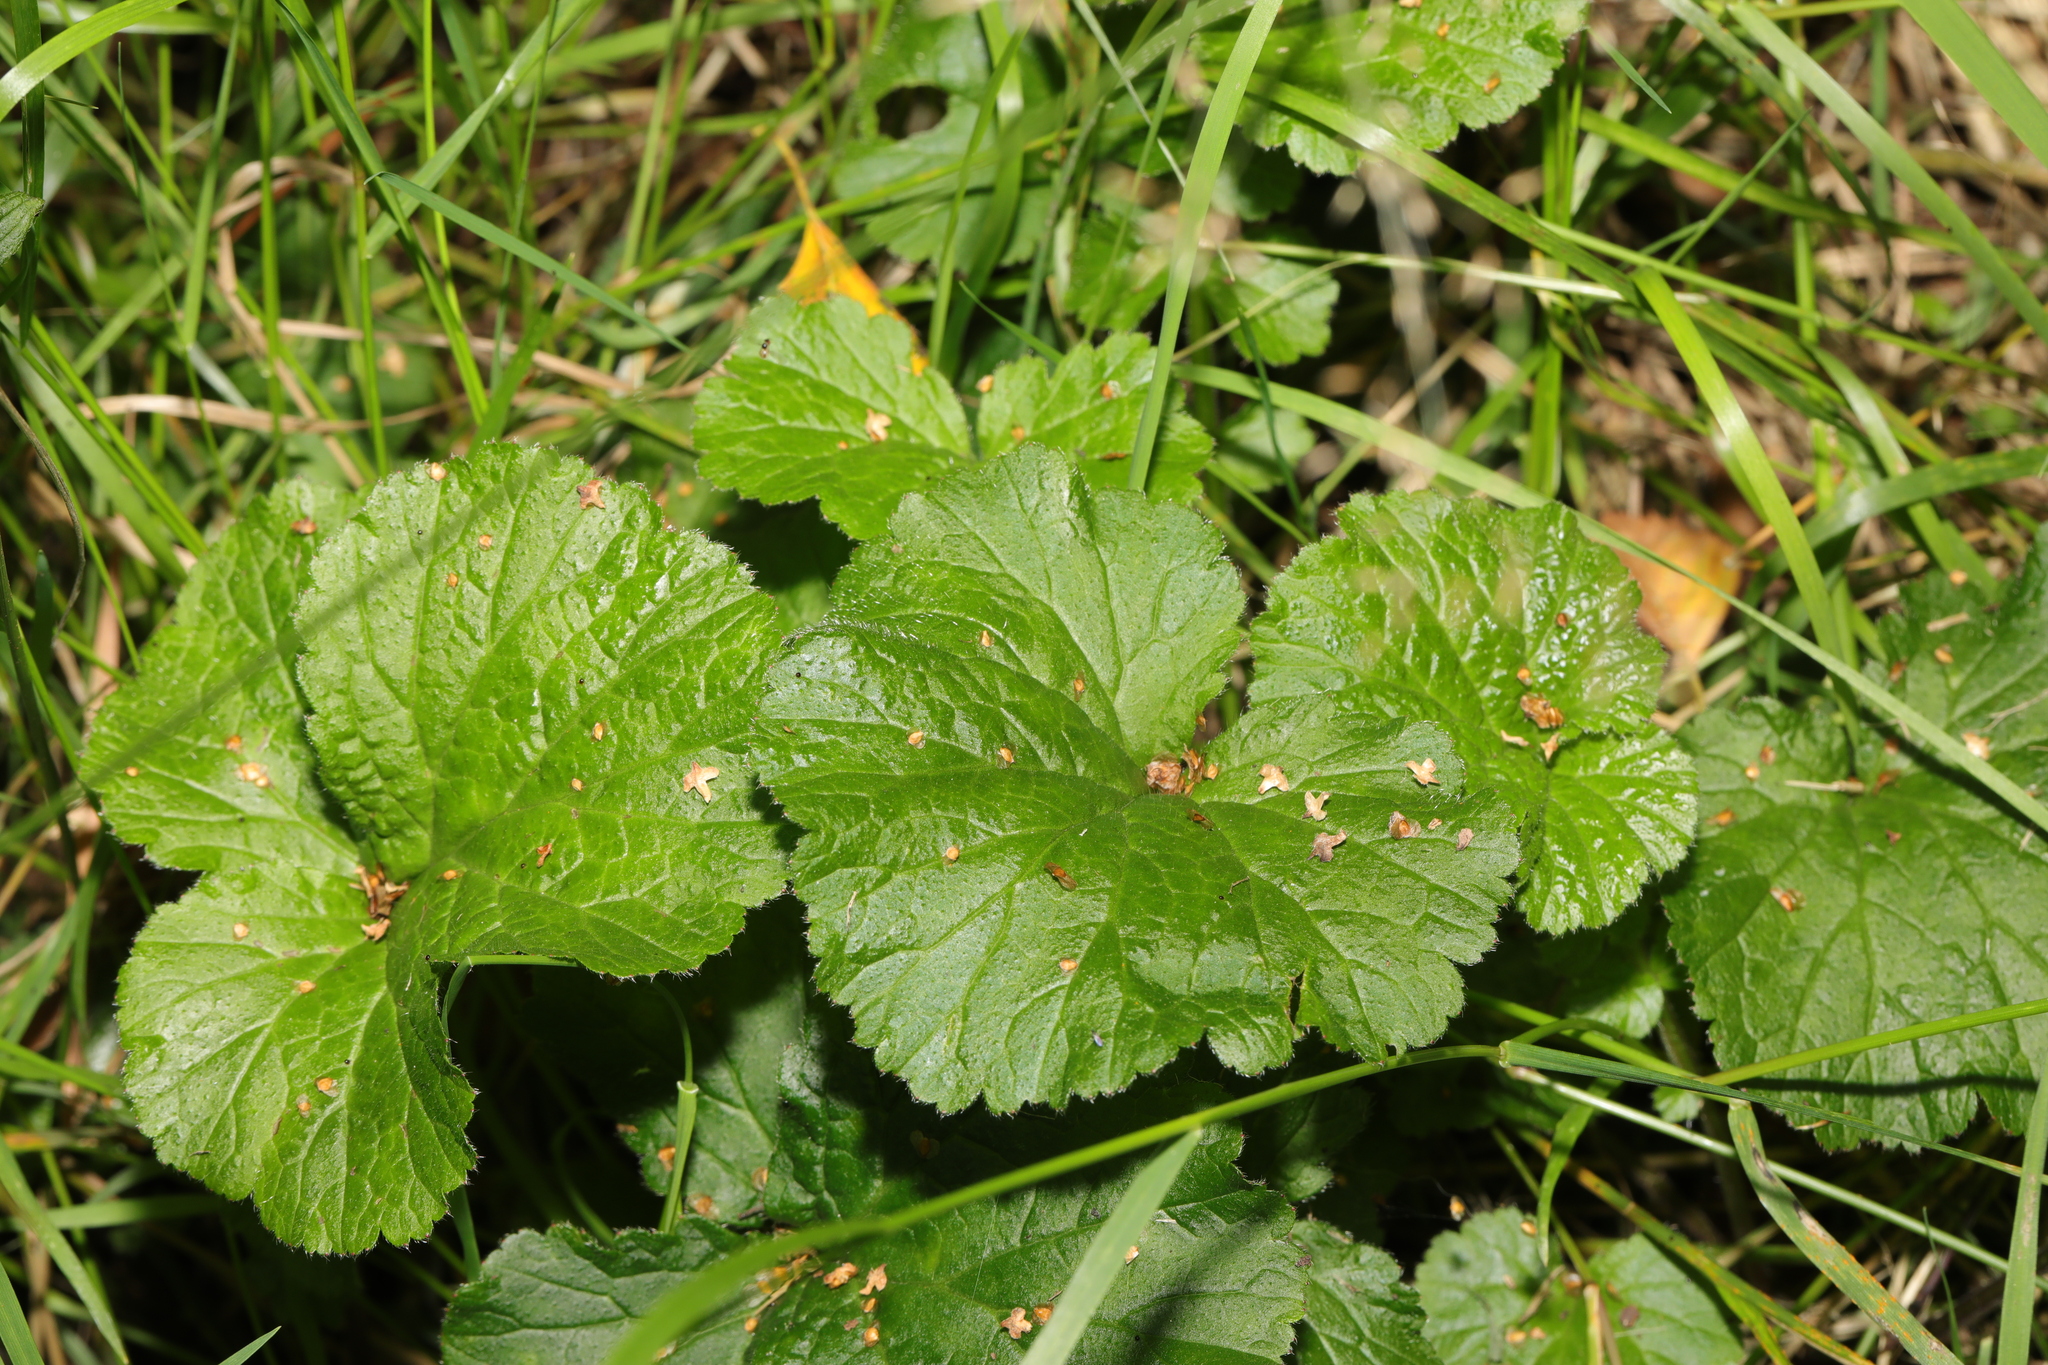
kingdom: Plantae
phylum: Tracheophyta
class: Magnoliopsida
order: Rosales
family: Rosaceae
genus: Geum
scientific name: Geum urbanum
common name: Wood avens
